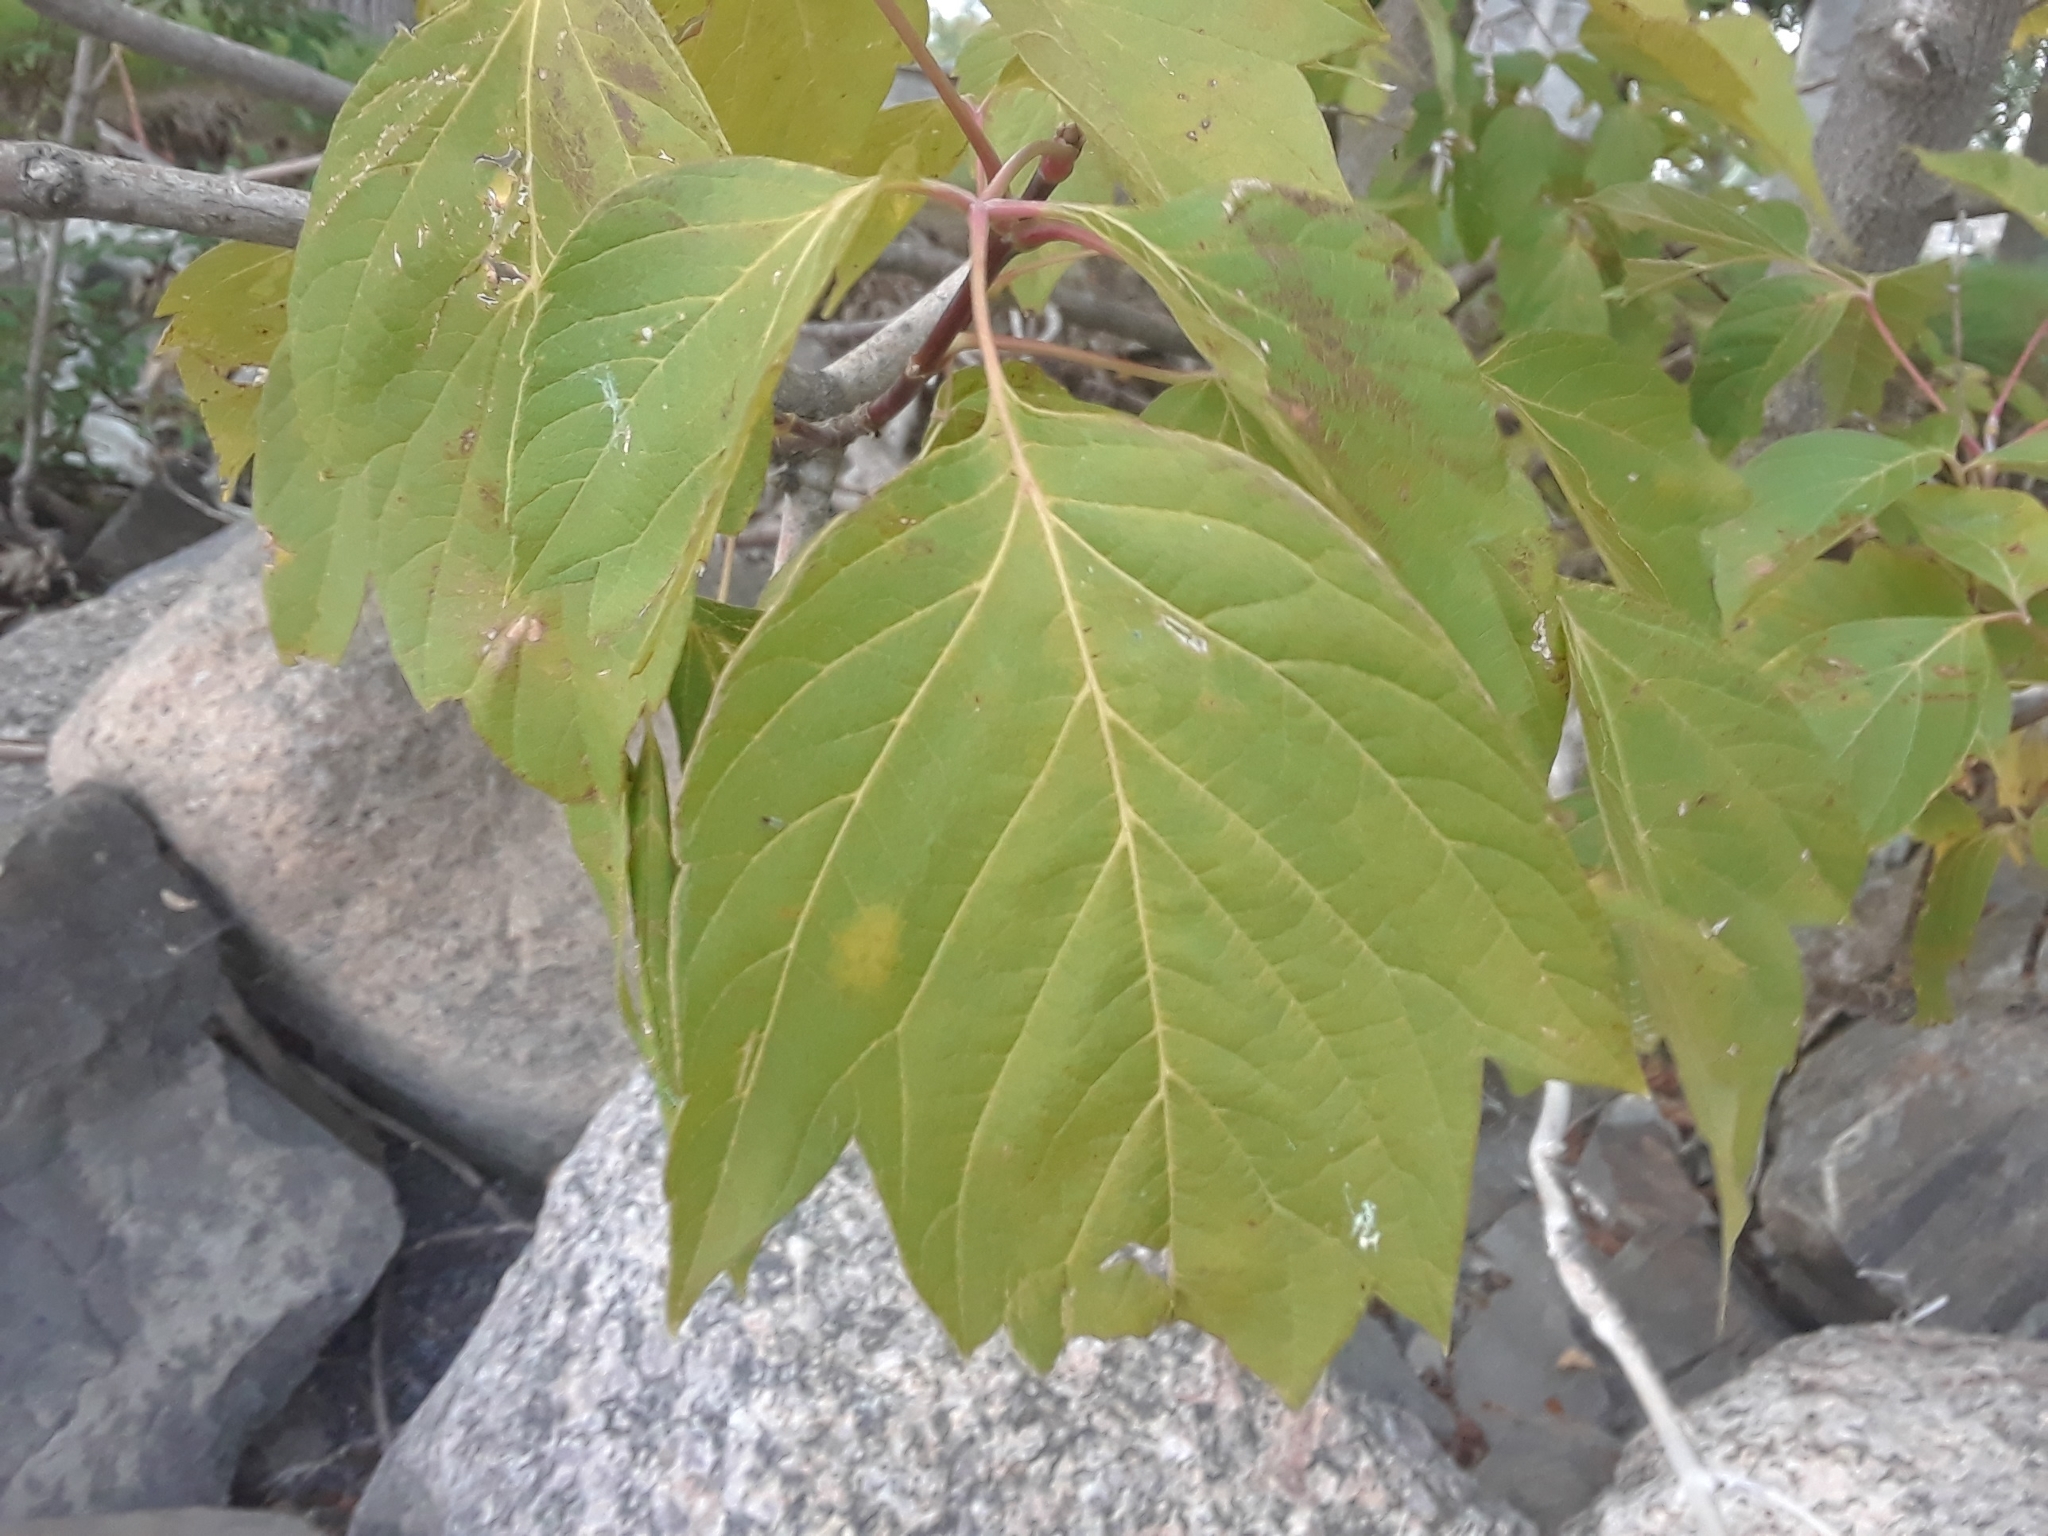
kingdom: Plantae
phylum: Tracheophyta
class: Magnoliopsida
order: Sapindales
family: Sapindaceae
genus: Acer
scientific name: Acer negundo
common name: Ashleaf maple
